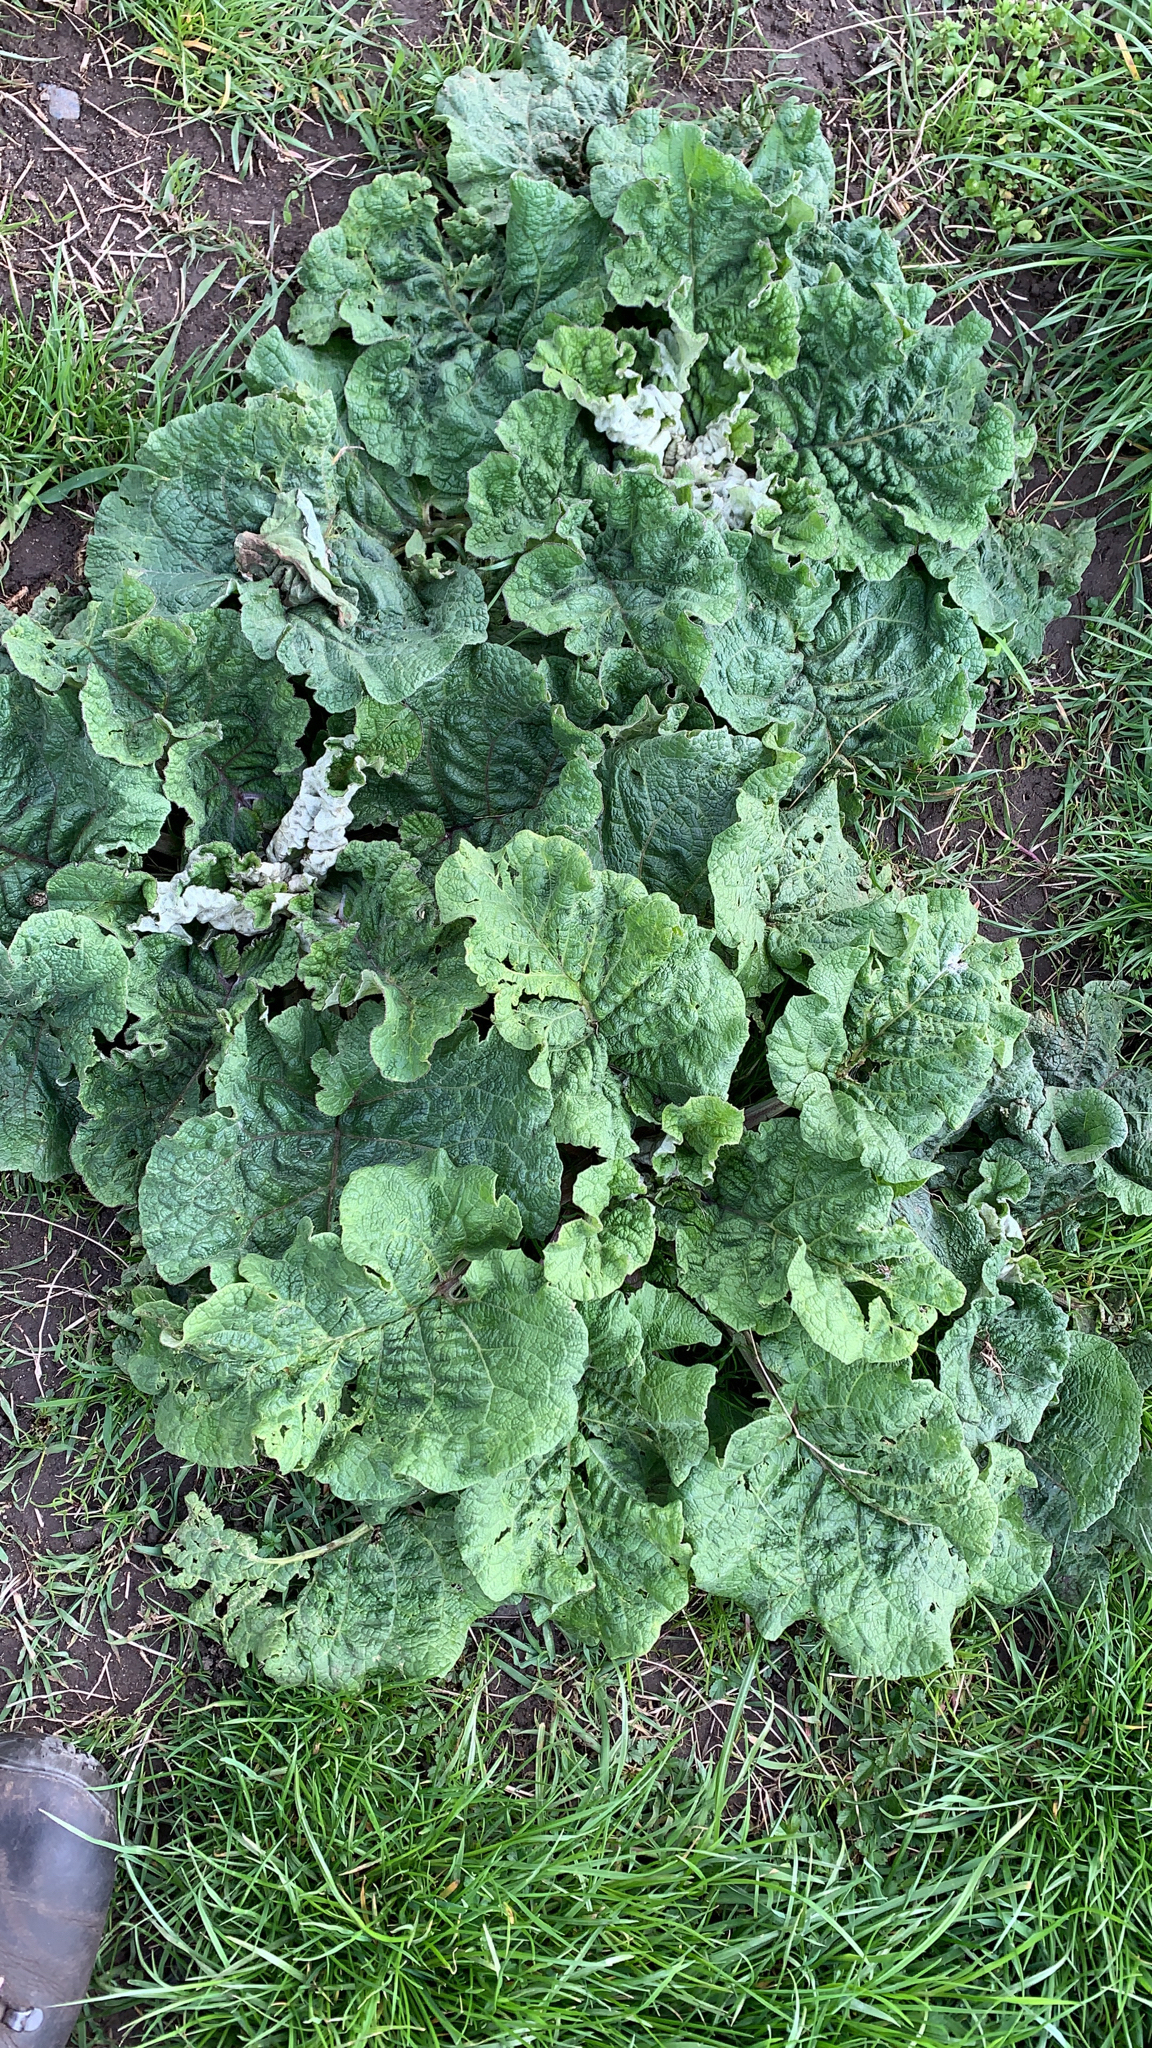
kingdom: Plantae
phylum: Tracheophyta
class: Magnoliopsida
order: Asterales
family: Asteraceae
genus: Arctium
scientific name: Arctium
